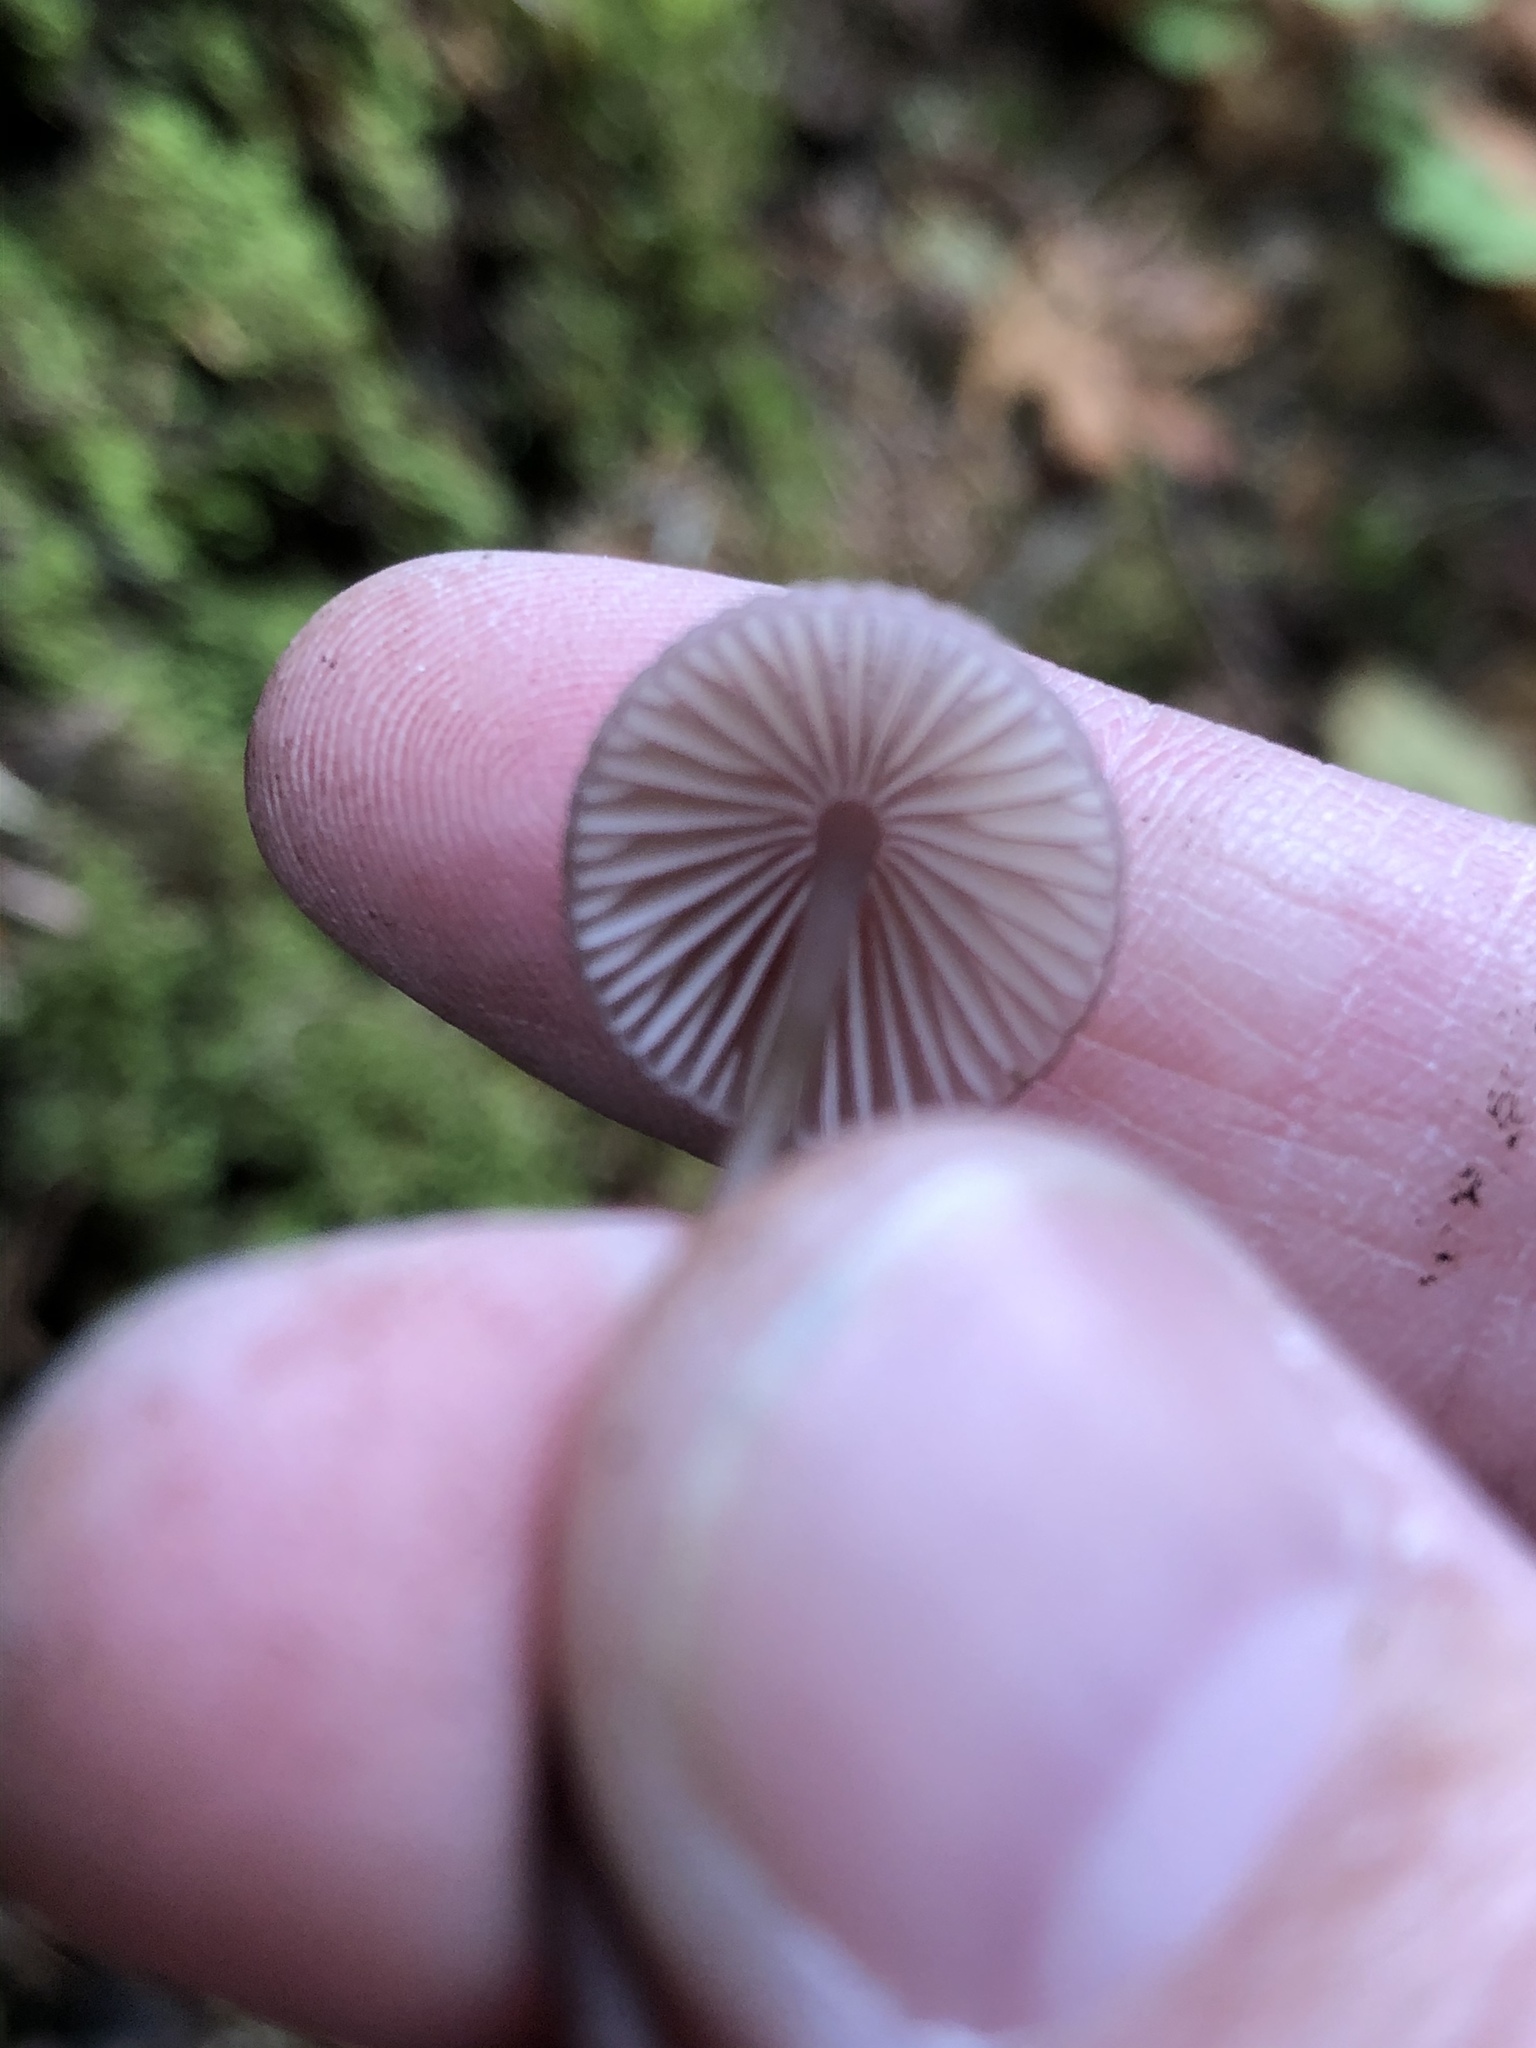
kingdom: Fungi
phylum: Basidiomycota
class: Agaricomycetes
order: Agaricales
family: Mycenaceae
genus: Mycena
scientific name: Mycena purpureofusca
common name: Purple edge bonnet
